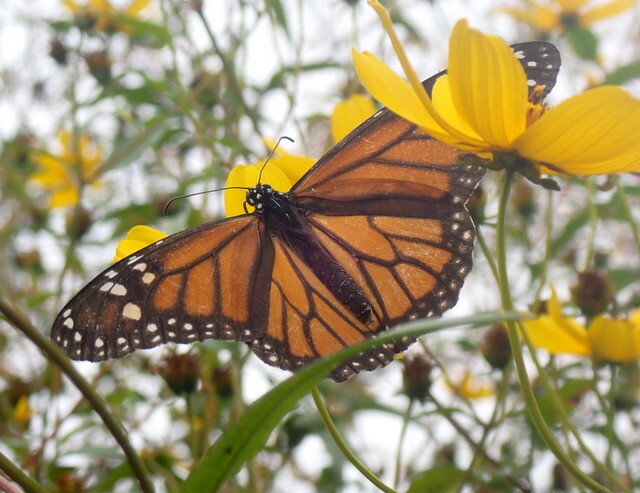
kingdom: Animalia
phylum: Arthropoda
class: Insecta
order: Lepidoptera
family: Nymphalidae
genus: Danaus
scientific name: Danaus plexippus
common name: Monarch
